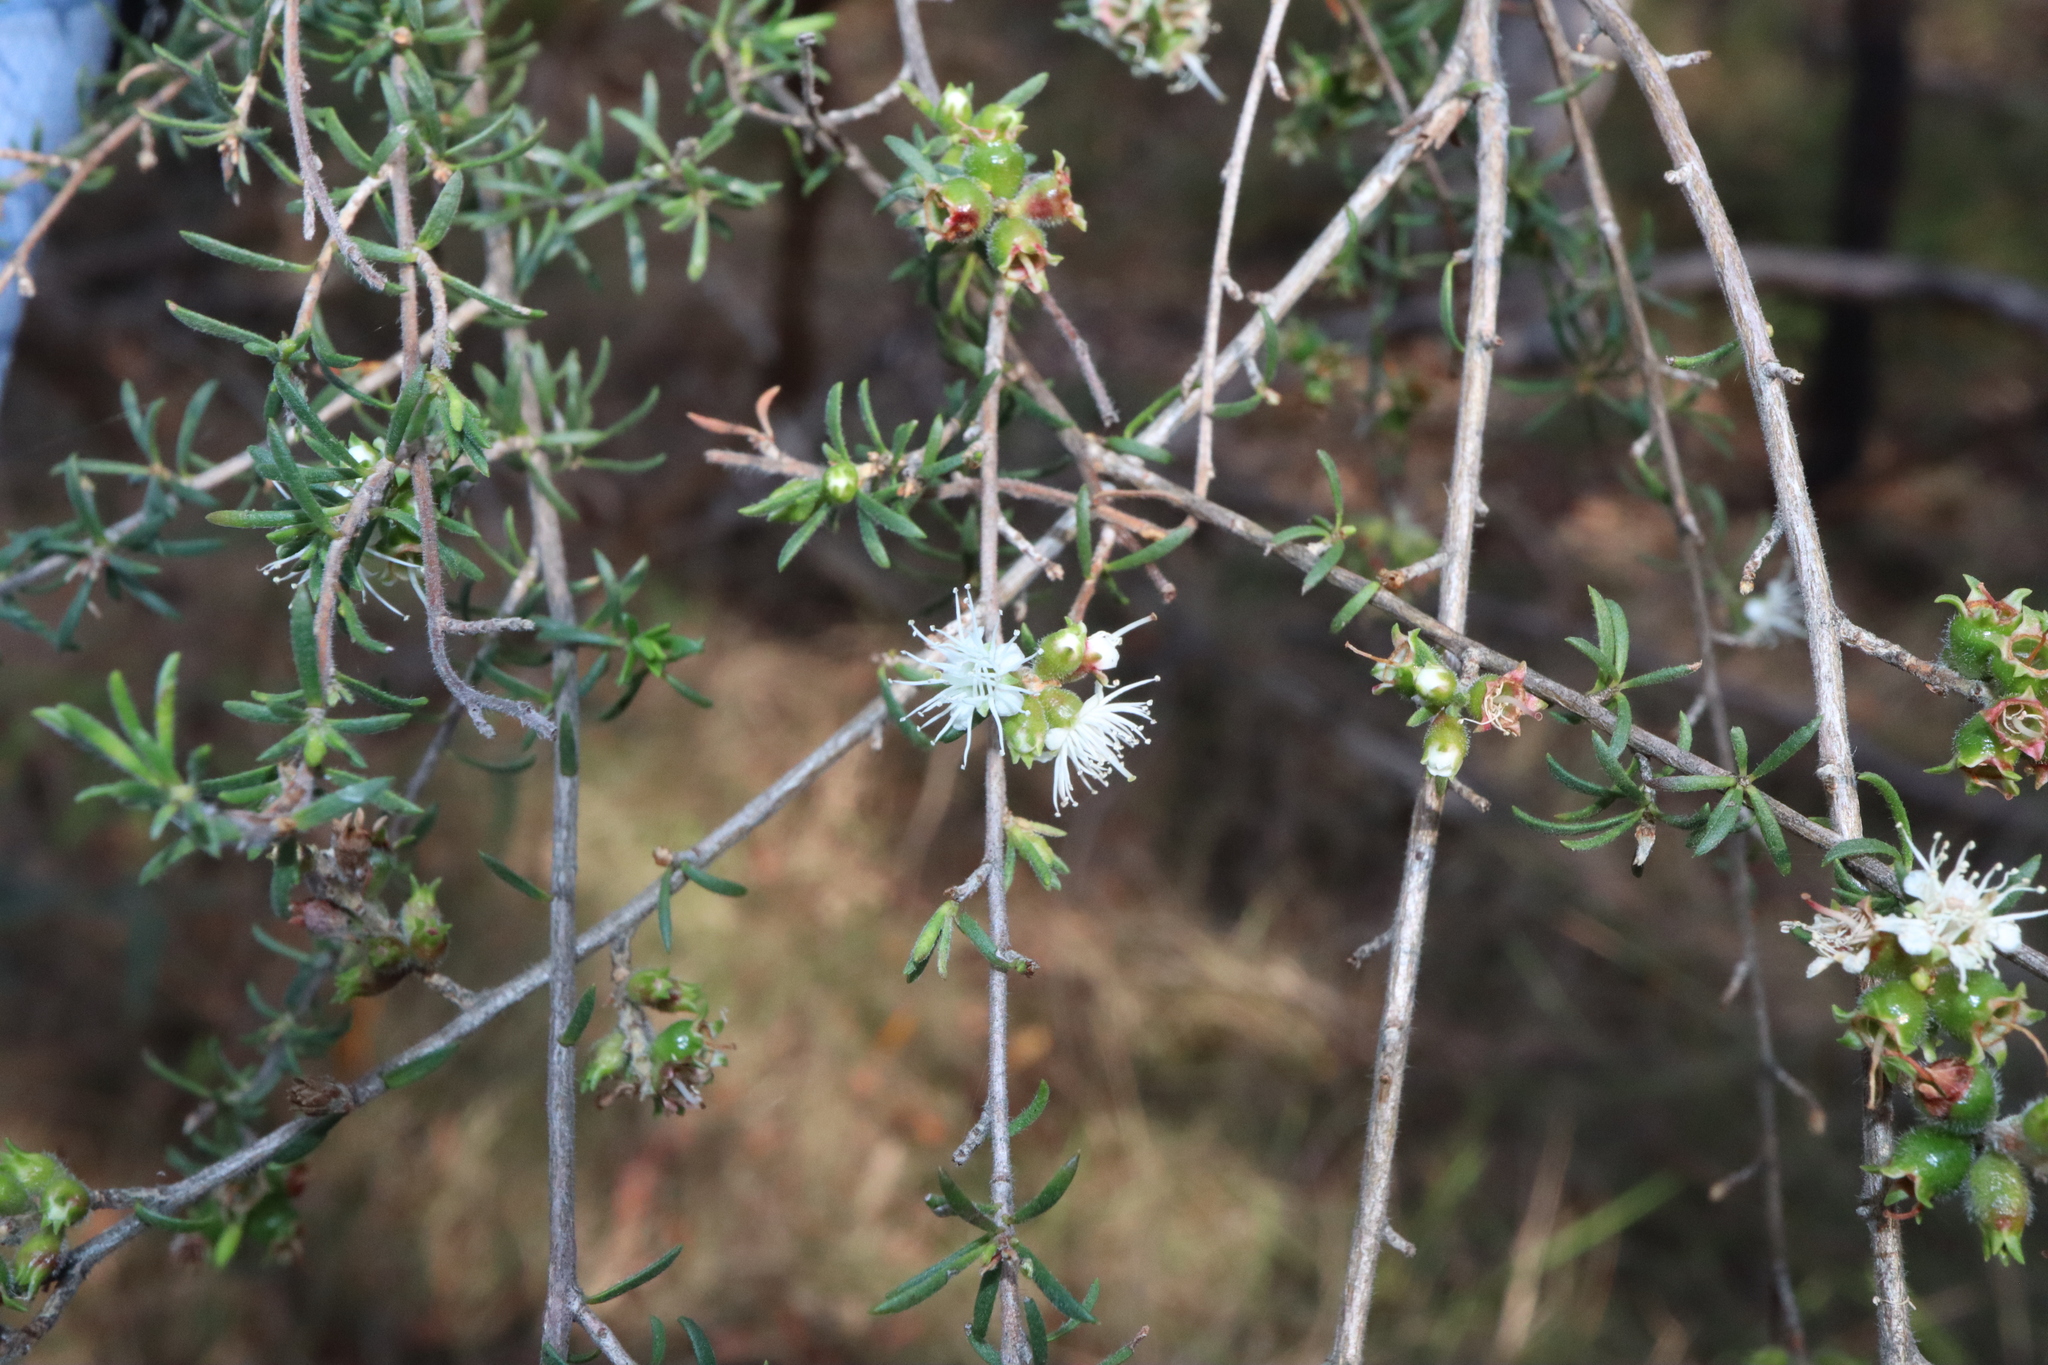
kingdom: Plantae
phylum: Tracheophyta
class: Magnoliopsida
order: Myrtales
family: Myrtaceae
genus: Kunzea
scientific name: Kunzea ambigua
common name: Tickbush
